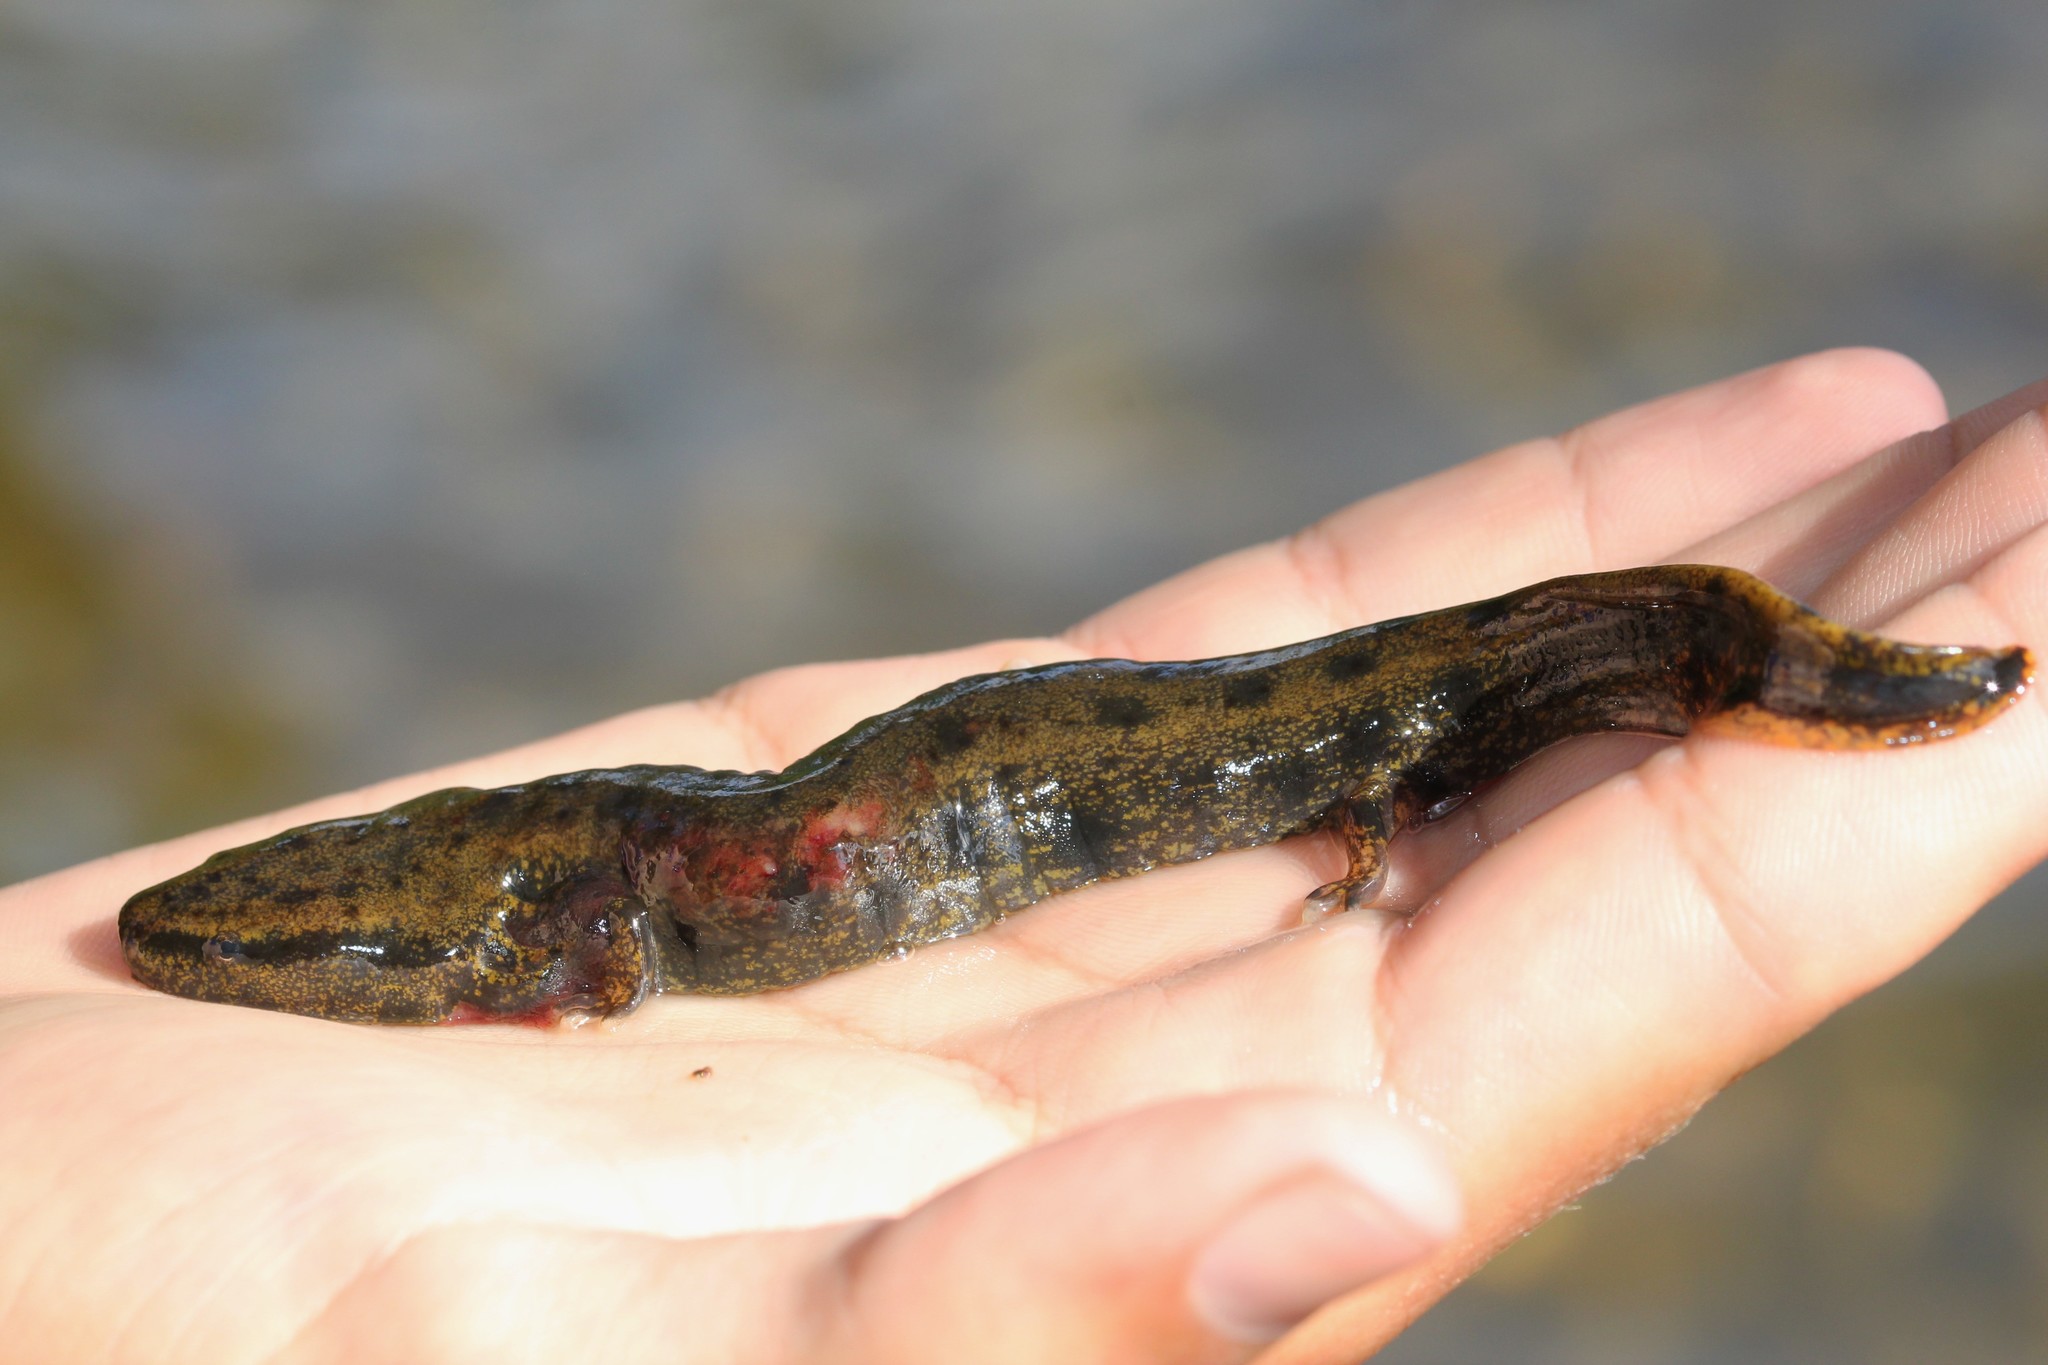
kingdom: Animalia
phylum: Chordata
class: Amphibia
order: Caudata
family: Proteidae
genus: Necturus
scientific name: Necturus maculosus
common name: Mudpuppy
